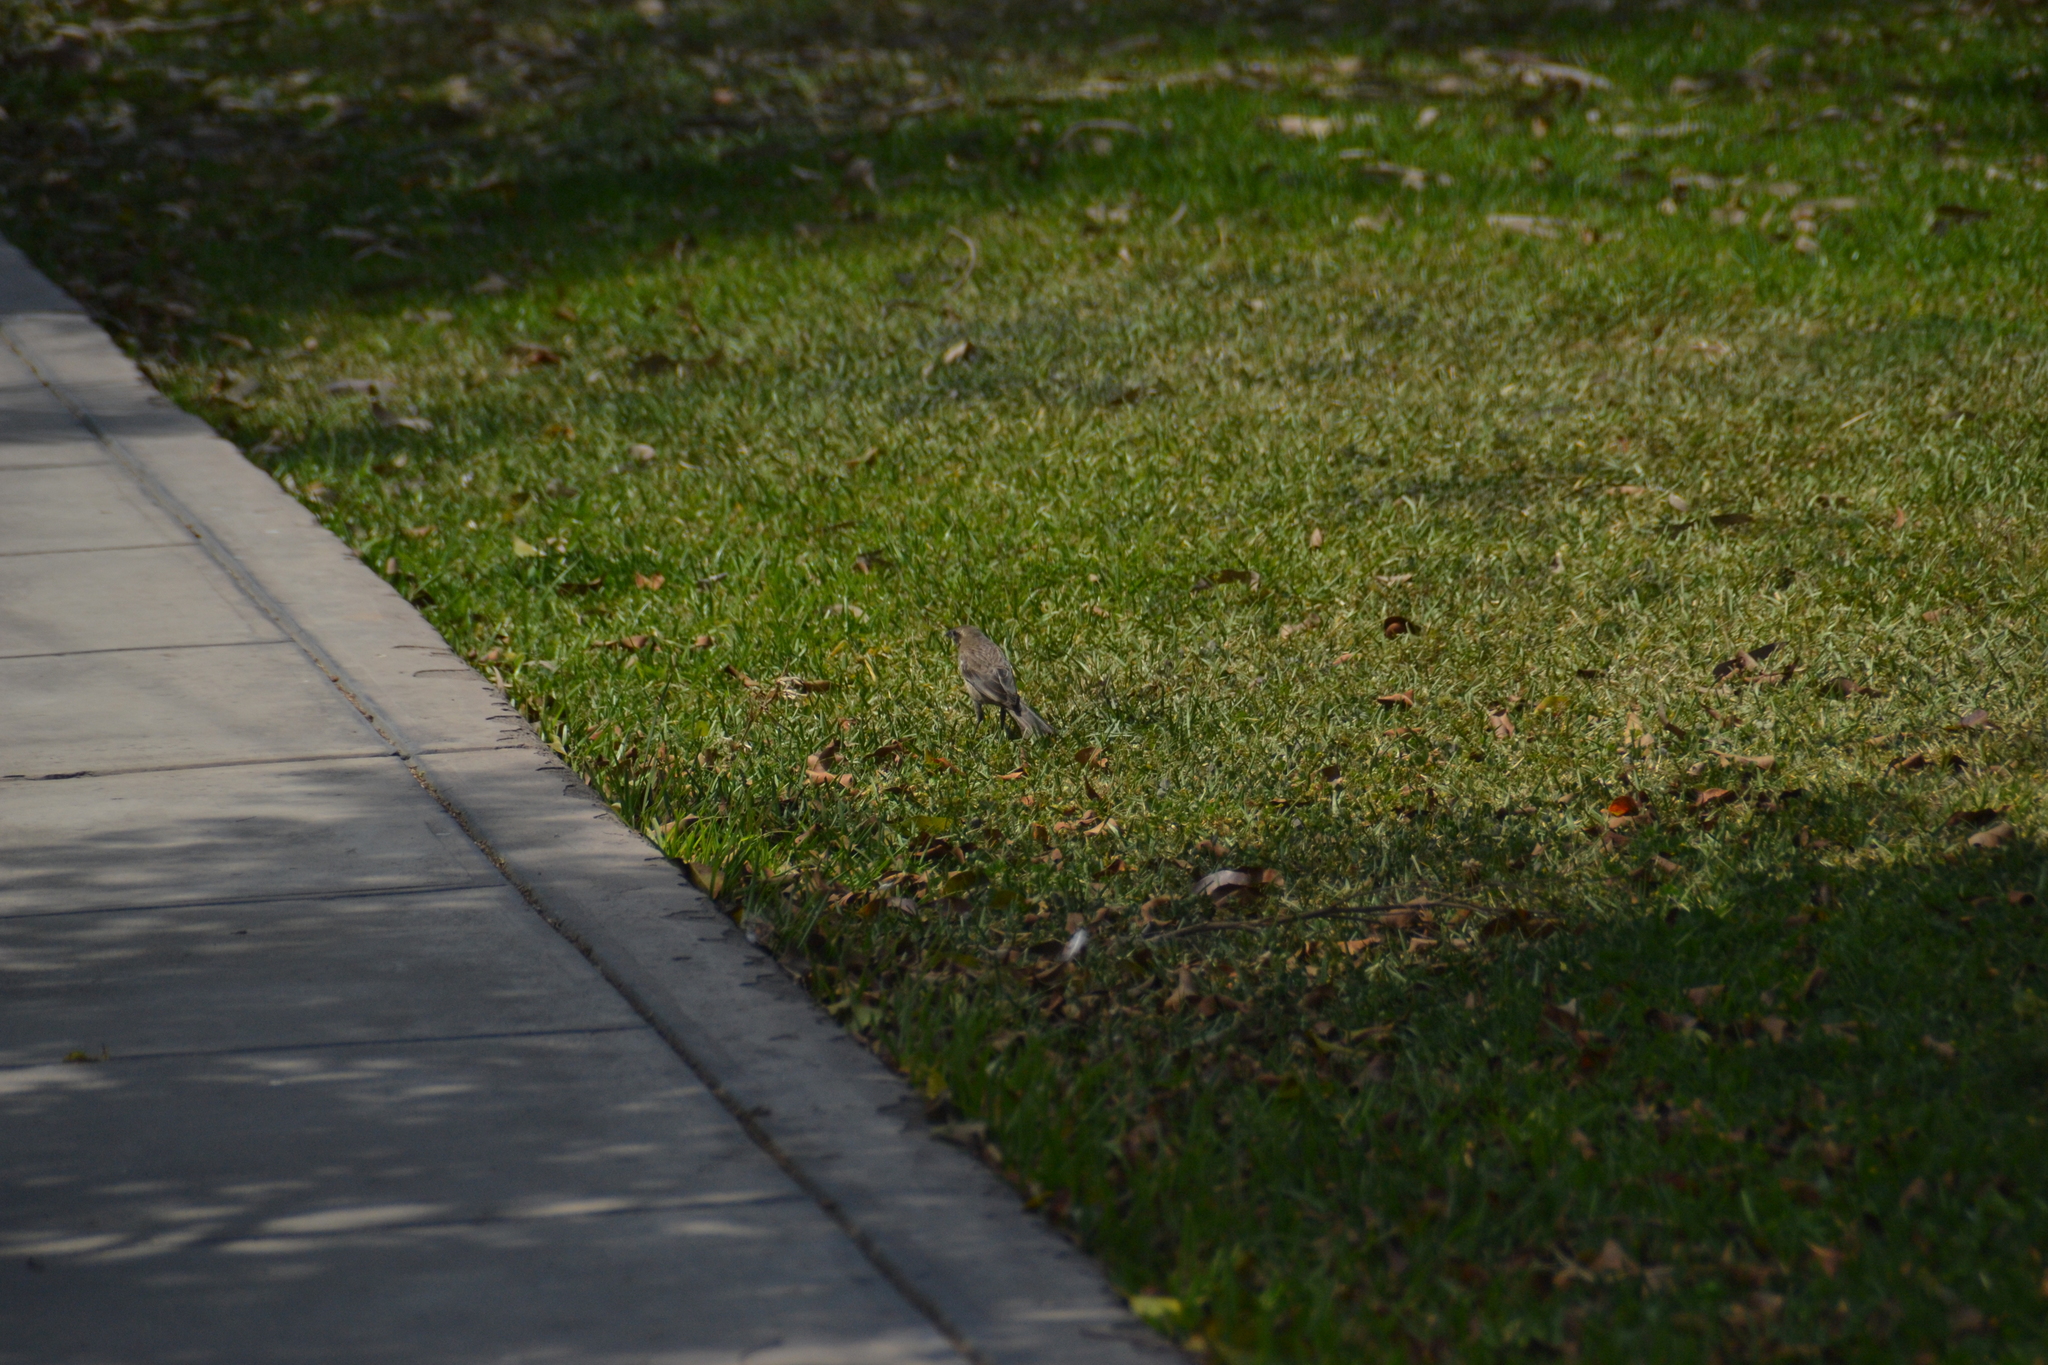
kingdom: Animalia
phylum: Chordata
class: Aves
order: Passeriformes
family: Mimidae
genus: Mimus
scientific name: Mimus longicaudatus
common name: Long-tailed mockingbird
